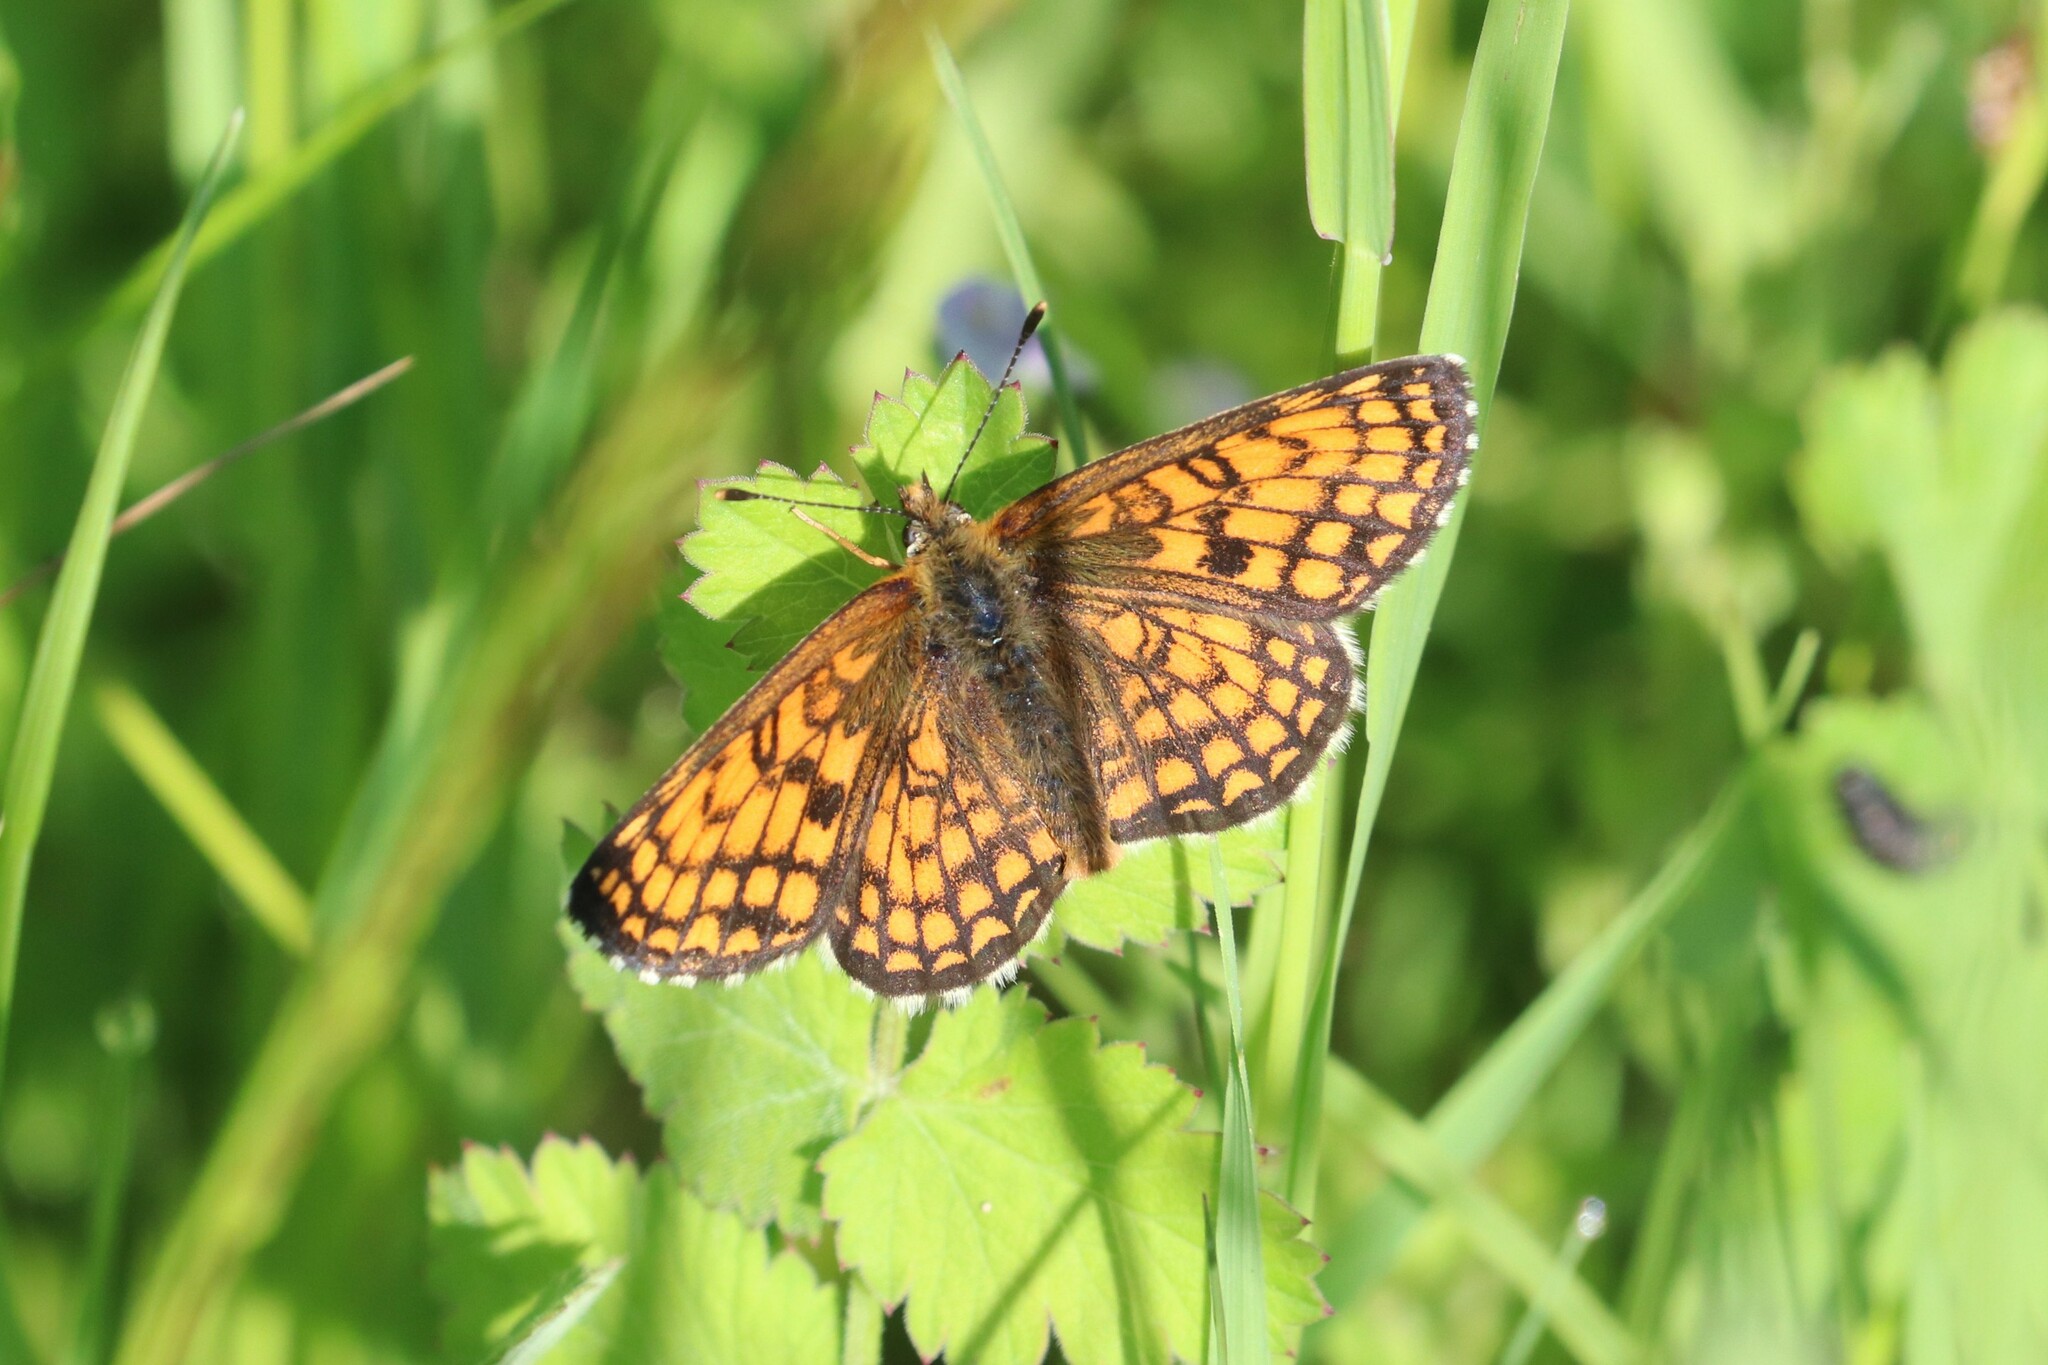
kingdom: Animalia
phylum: Arthropoda
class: Insecta
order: Lepidoptera
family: Nymphalidae
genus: Melitaea
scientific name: Melitaea athalia
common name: Heath fritillary
